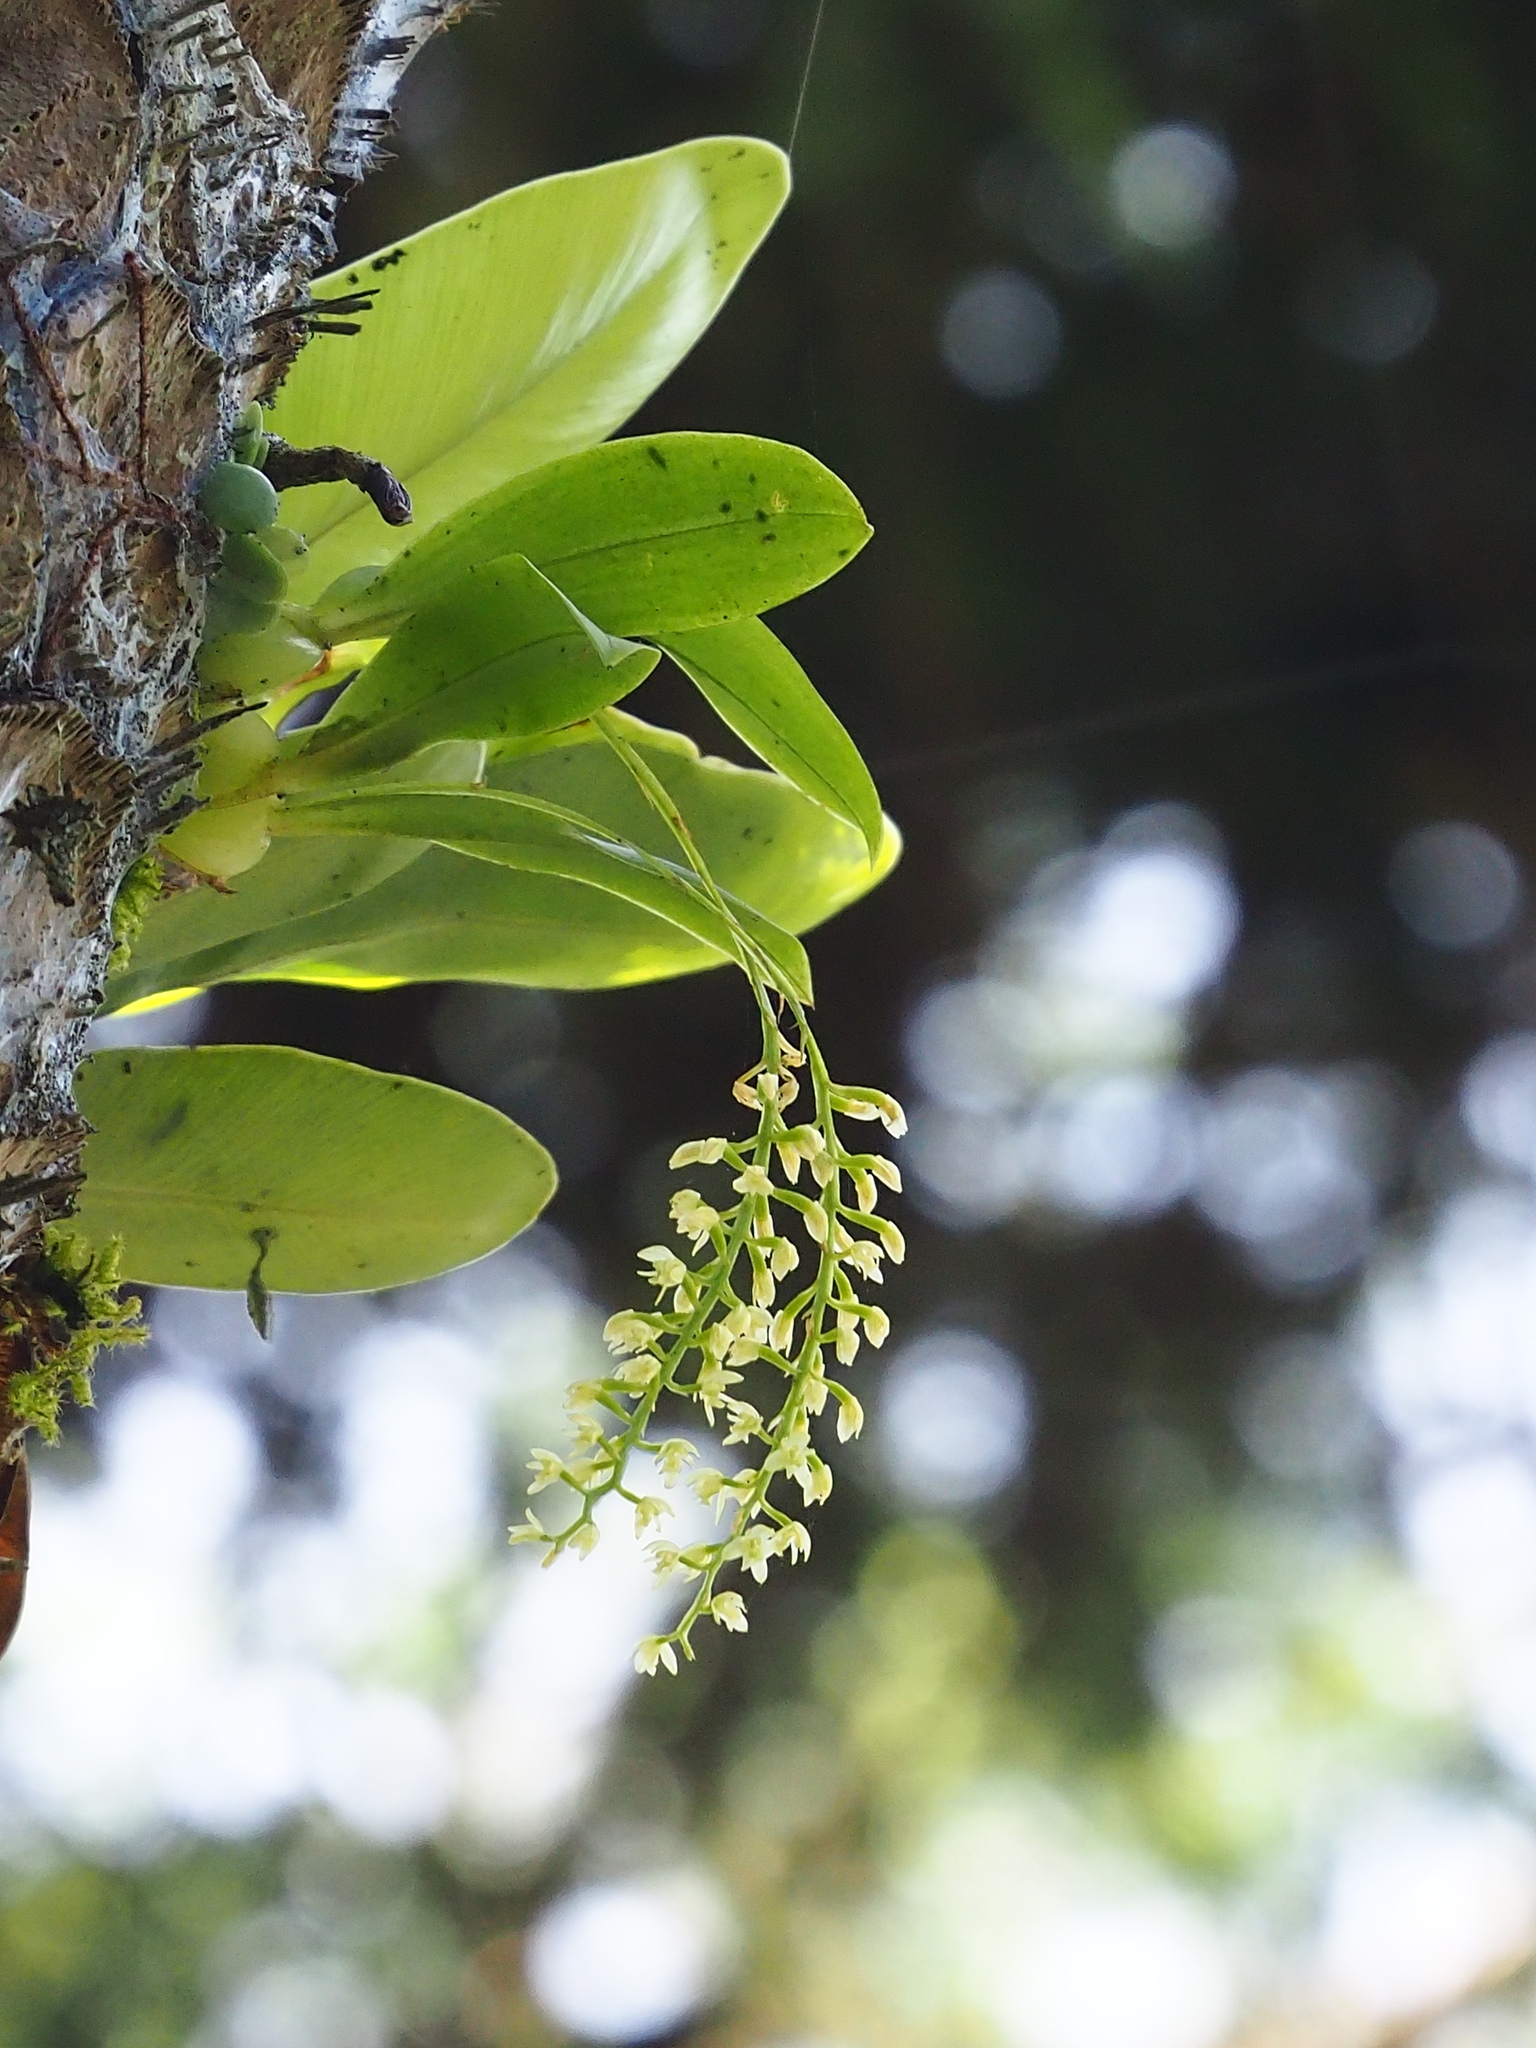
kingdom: Plantae
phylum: Tracheophyta
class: Liliopsida
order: Asparagales
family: Orchidaceae
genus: Liparis
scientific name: Liparis elliptica
